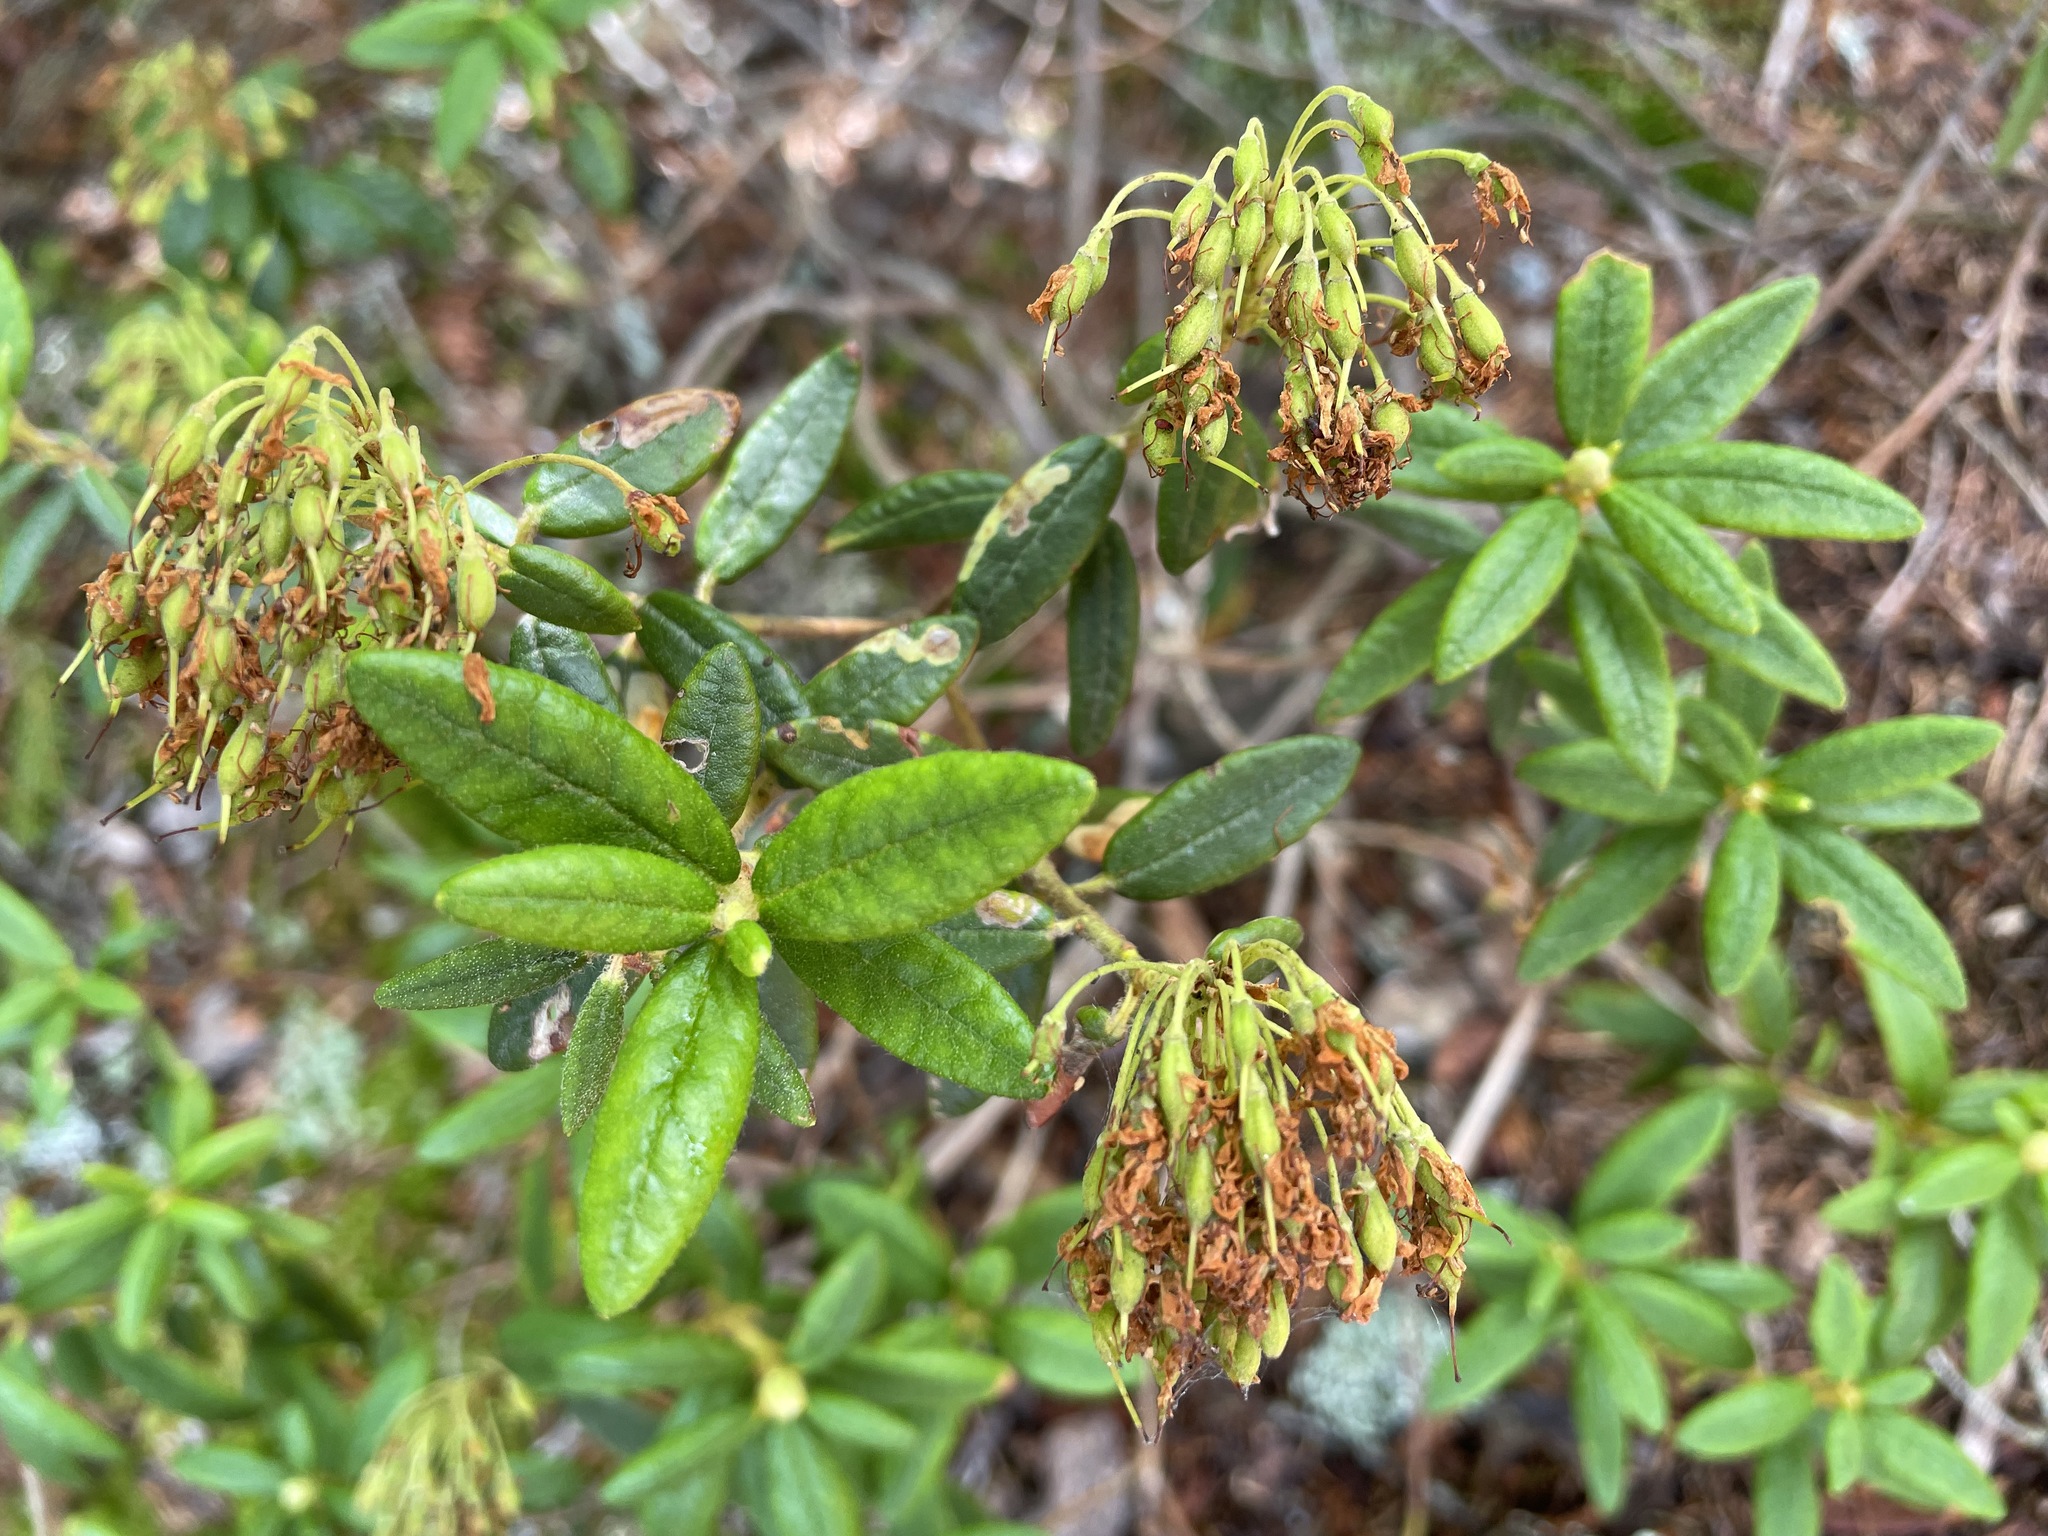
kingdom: Plantae
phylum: Tracheophyta
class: Magnoliopsida
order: Ericales
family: Ericaceae
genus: Rhododendron
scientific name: Rhododendron groenlandicum
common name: Bog labrador tea
